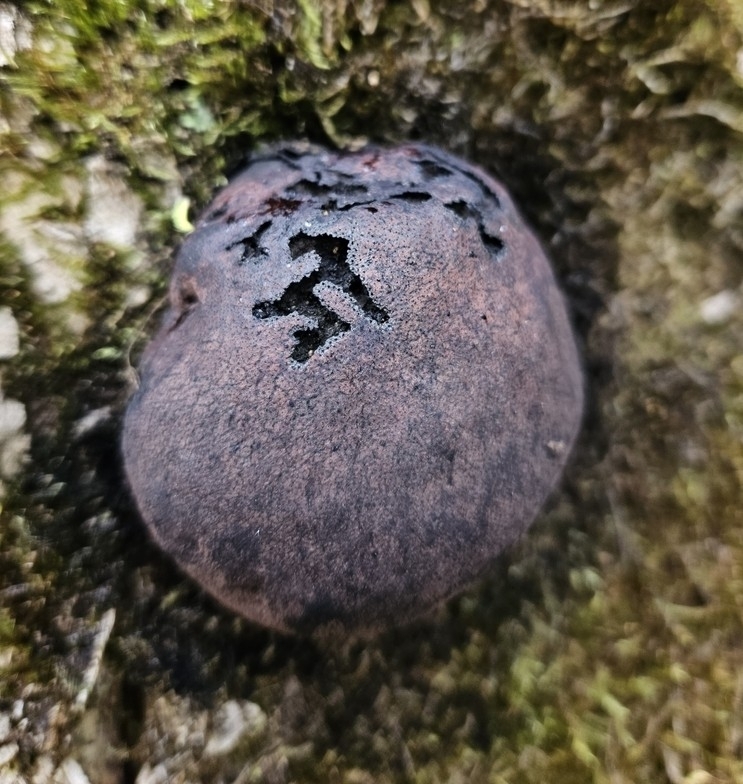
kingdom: Fungi
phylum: Ascomycota
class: Sordariomycetes
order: Xylariales
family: Hypoxylaceae
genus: Daldinia
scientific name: Daldinia concentrica
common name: Cramp balls
